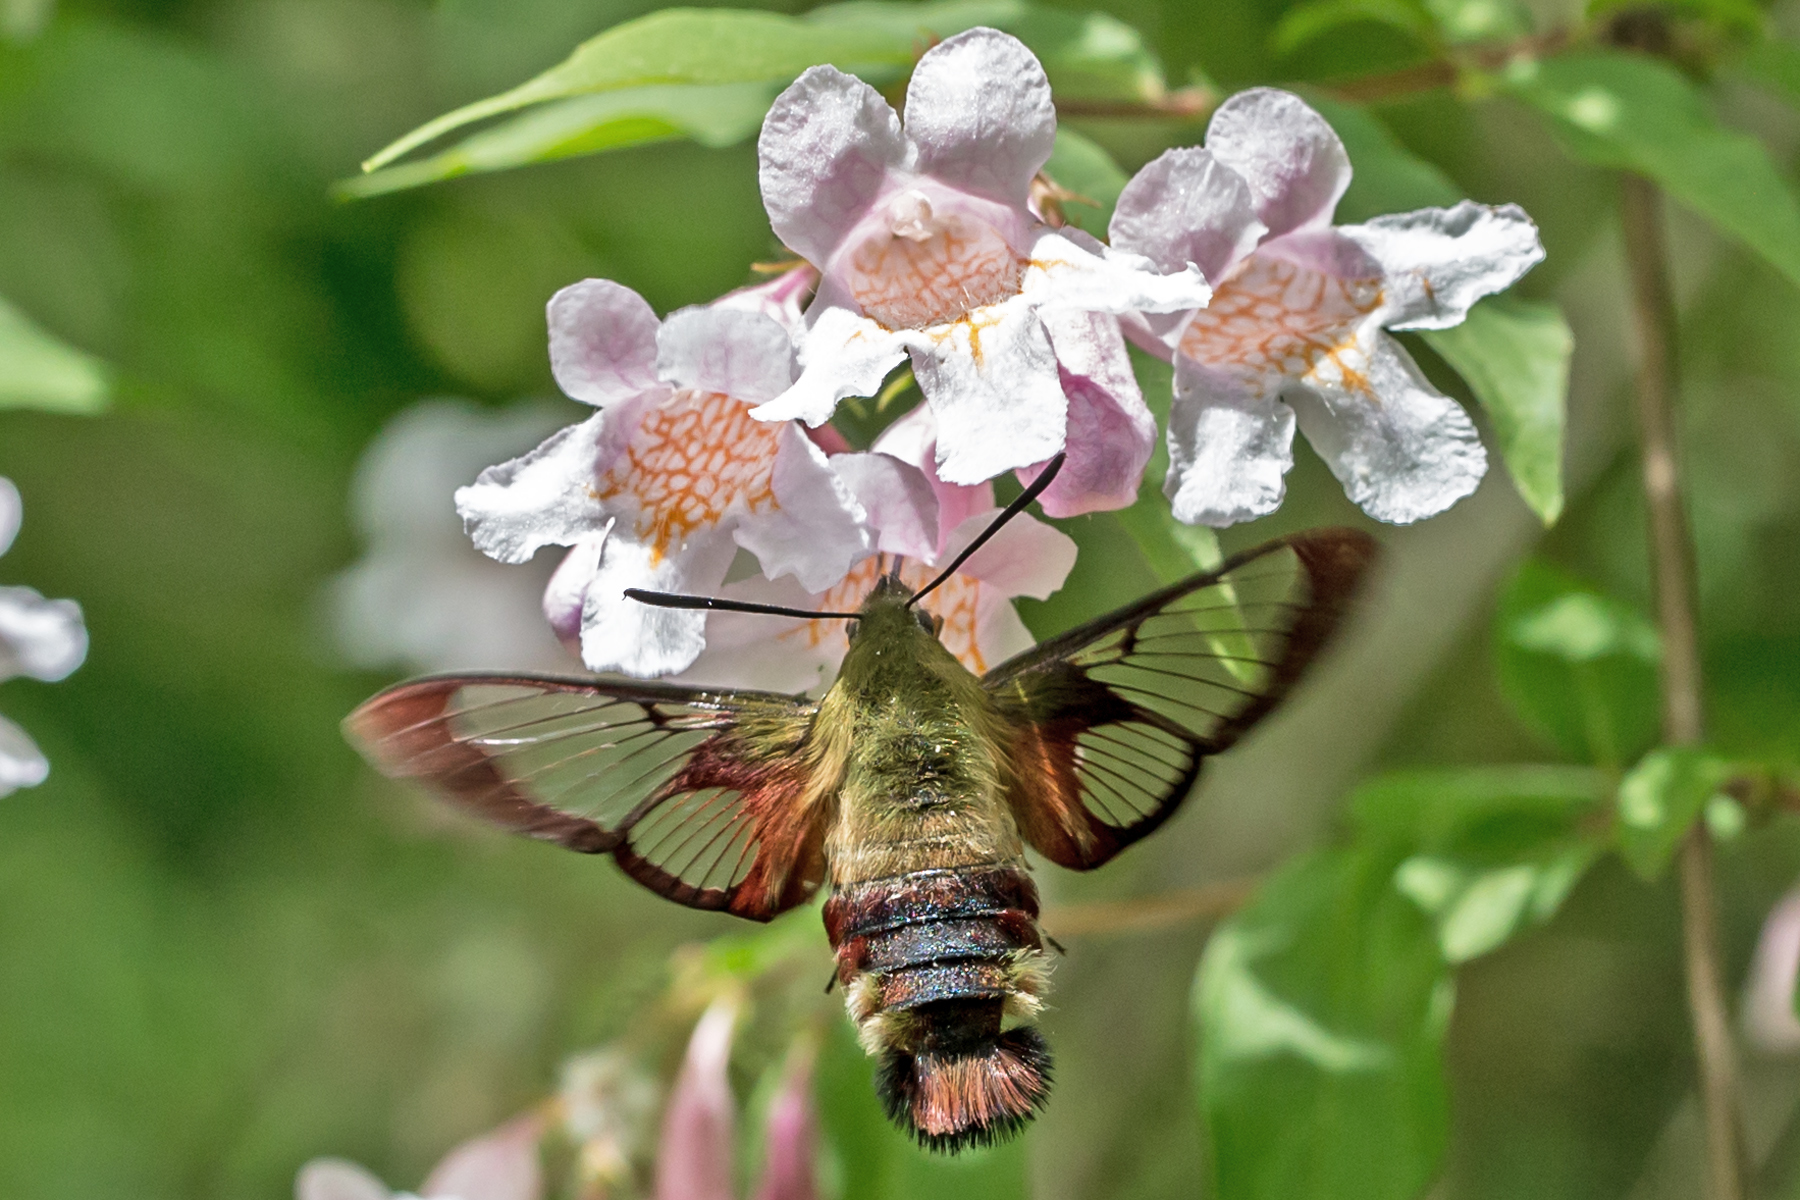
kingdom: Animalia
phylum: Arthropoda
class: Insecta
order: Lepidoptera
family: Sphingidae
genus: Hemaris
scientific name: Hemaris thysbe
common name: Common clear-wing
